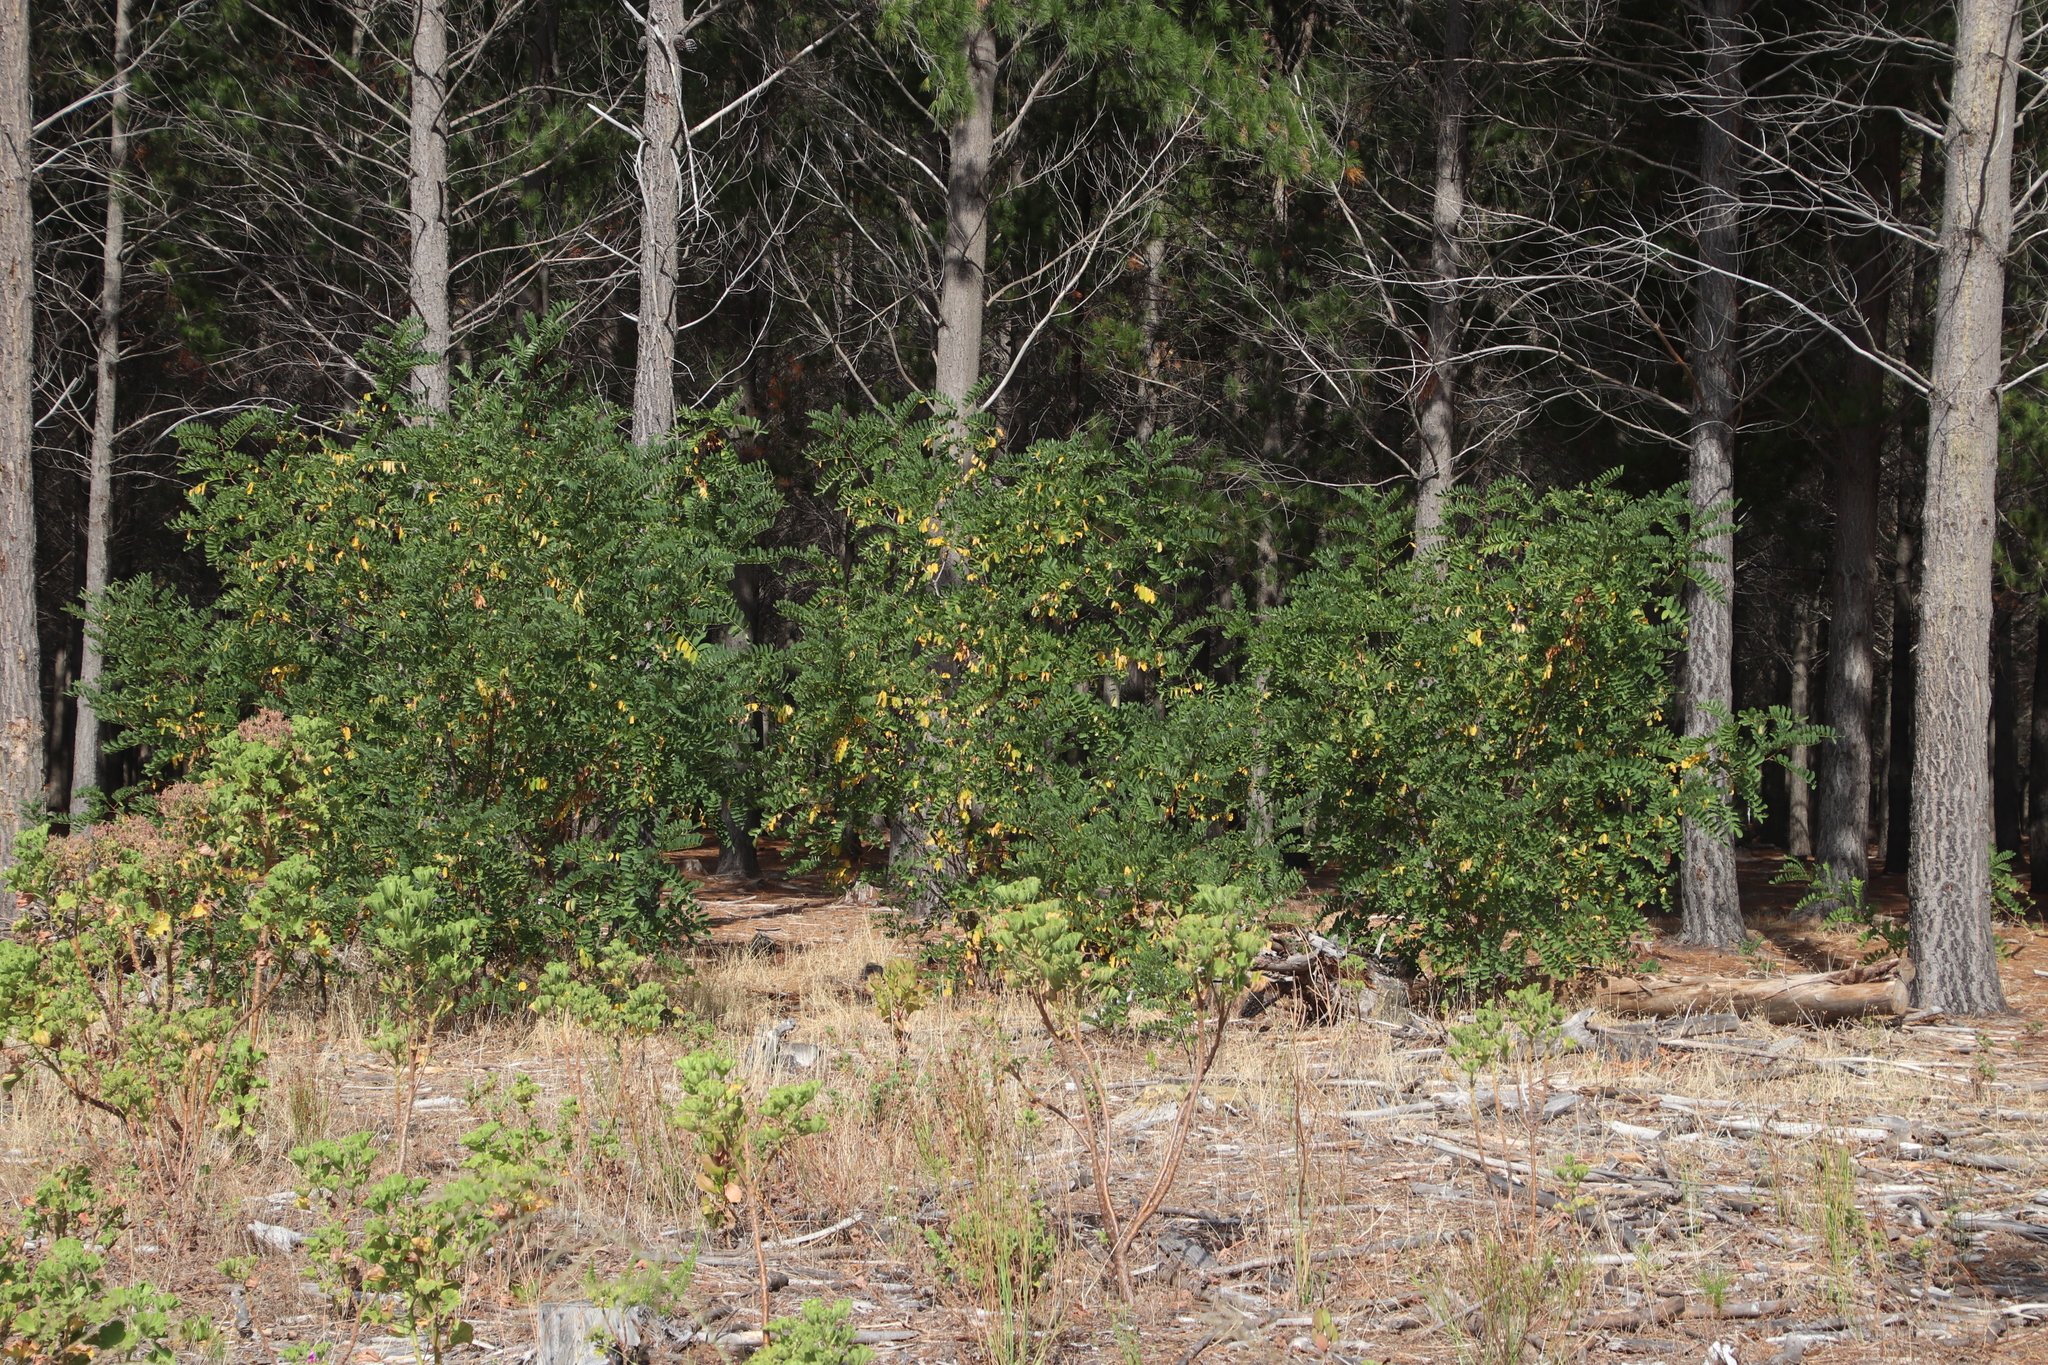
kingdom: Plantae
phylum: Tracheophyta
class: Magnoliopsida
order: Fabales
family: Fabaceae
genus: Robinia
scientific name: Robinia pseudoacacia
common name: Black locust
